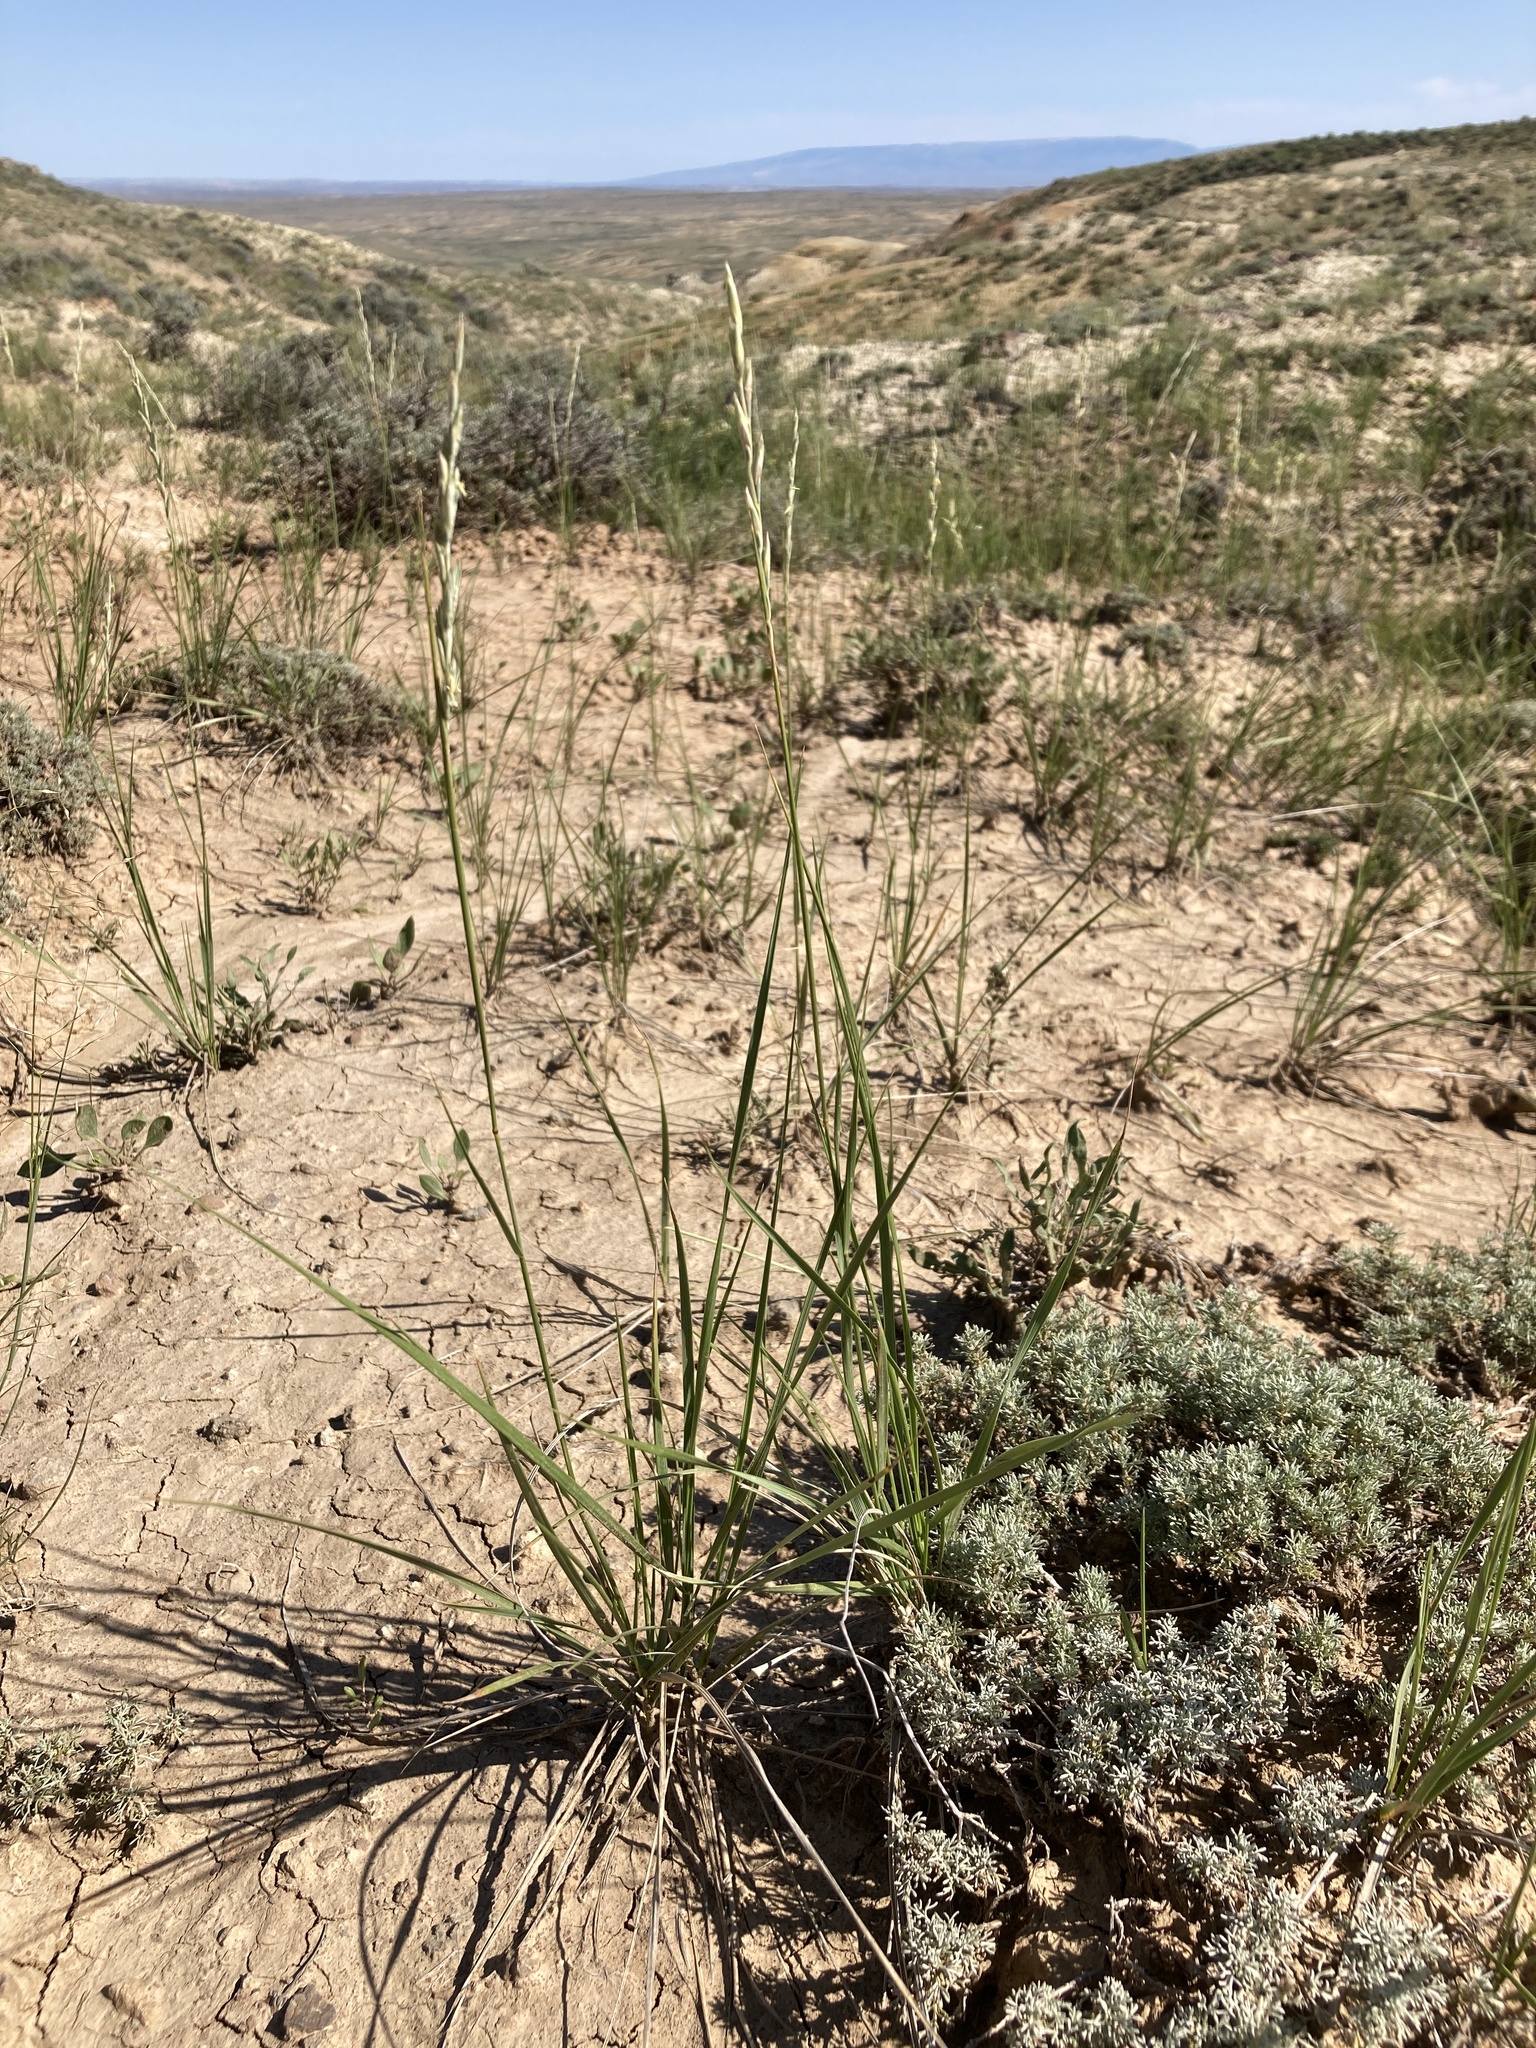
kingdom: Plantae
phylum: Tracheophyta
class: Liliopsida
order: Poales
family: Poaceae
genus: Elymus
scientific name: Elymus lanceolatus
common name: Thick-spike wheatgrass
